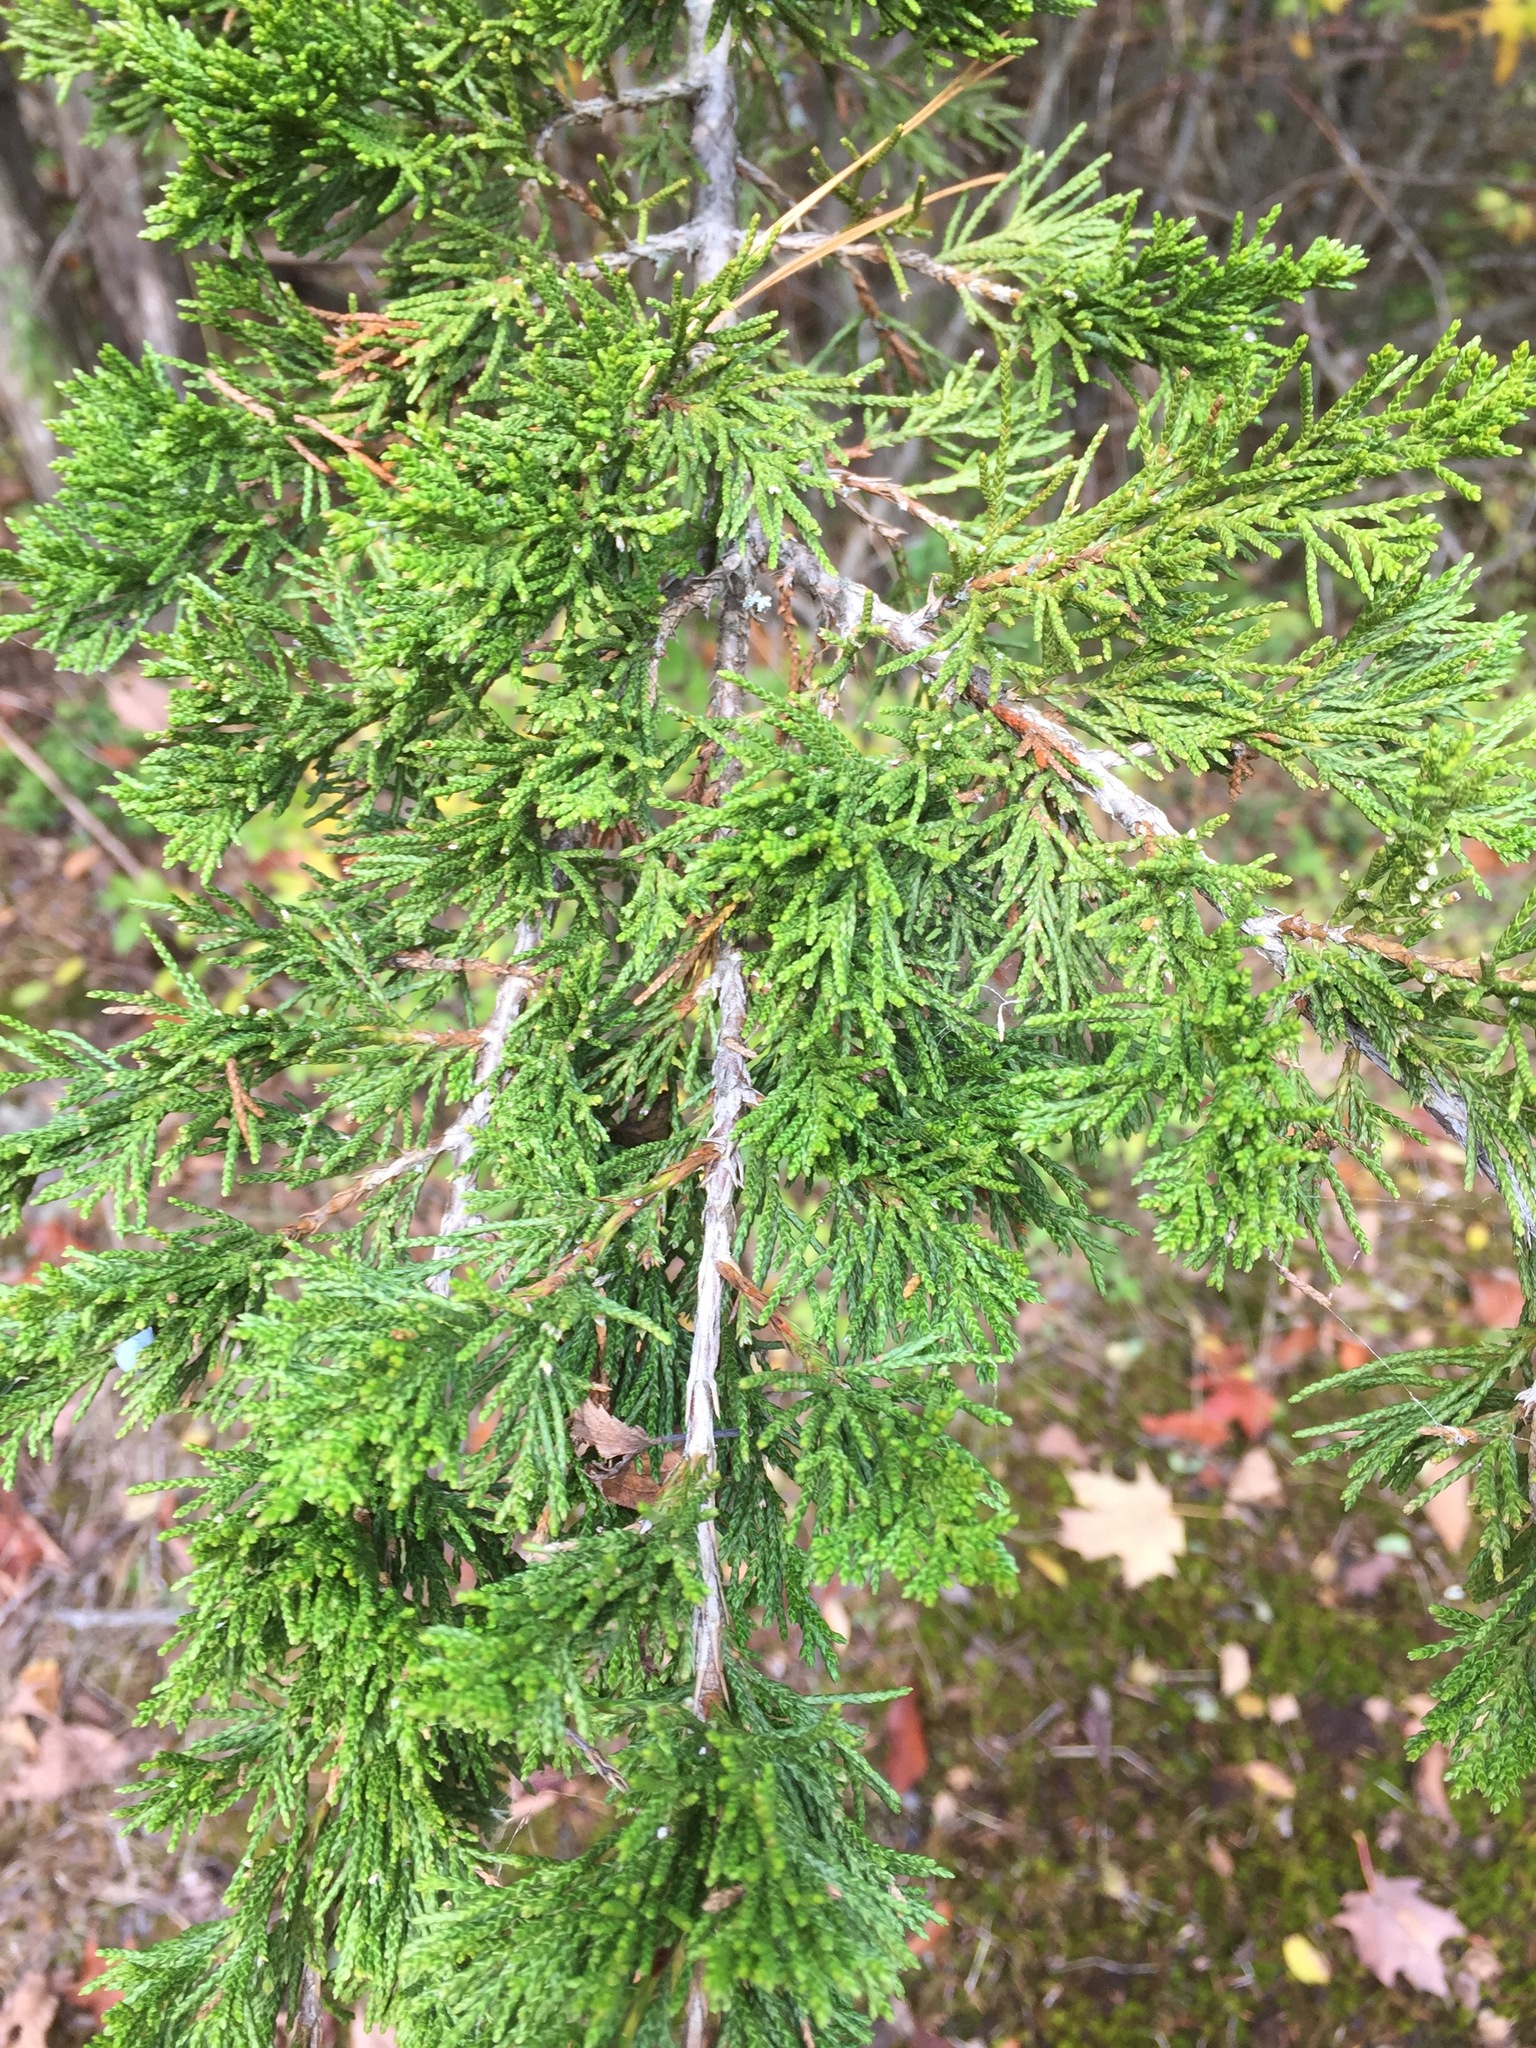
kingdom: Plantae
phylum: Tracheophyta
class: Pinopsida
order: Pinales
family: Cupressaceae
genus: Juniperus
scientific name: Juniperus virginiana
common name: Red juniper
